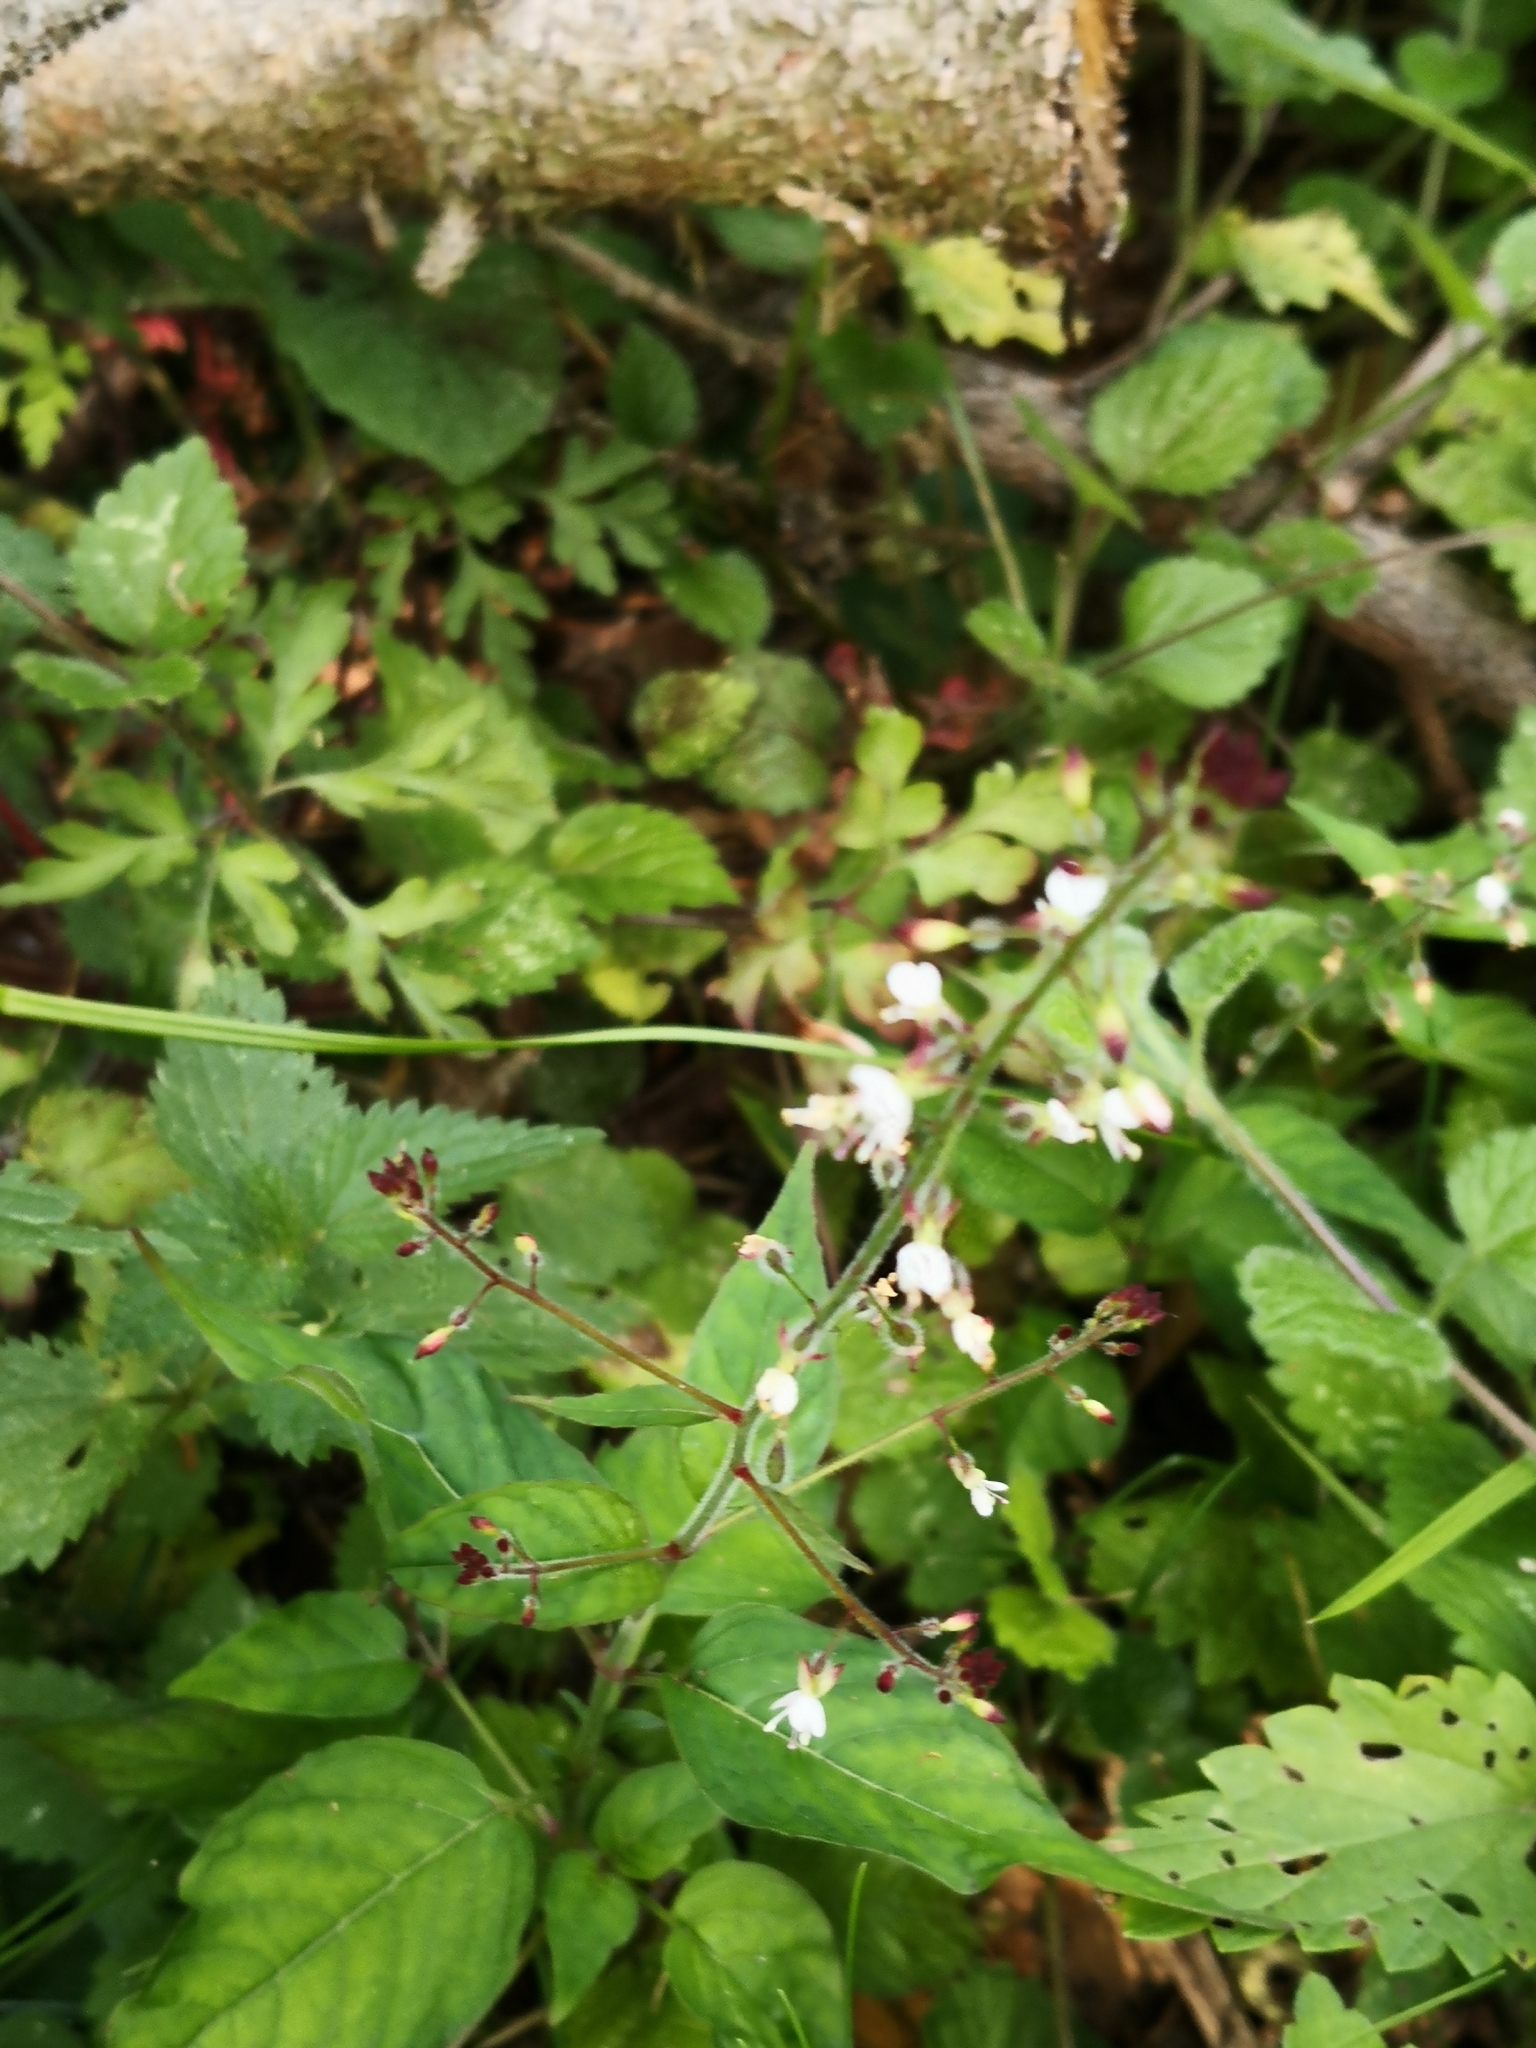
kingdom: Plantae
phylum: Tracheophyta
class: Magnoliopsida
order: Myrtales
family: Onagraceae
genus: Circaea
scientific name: Circaea lutetiana
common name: Enchanter's-nightshade
